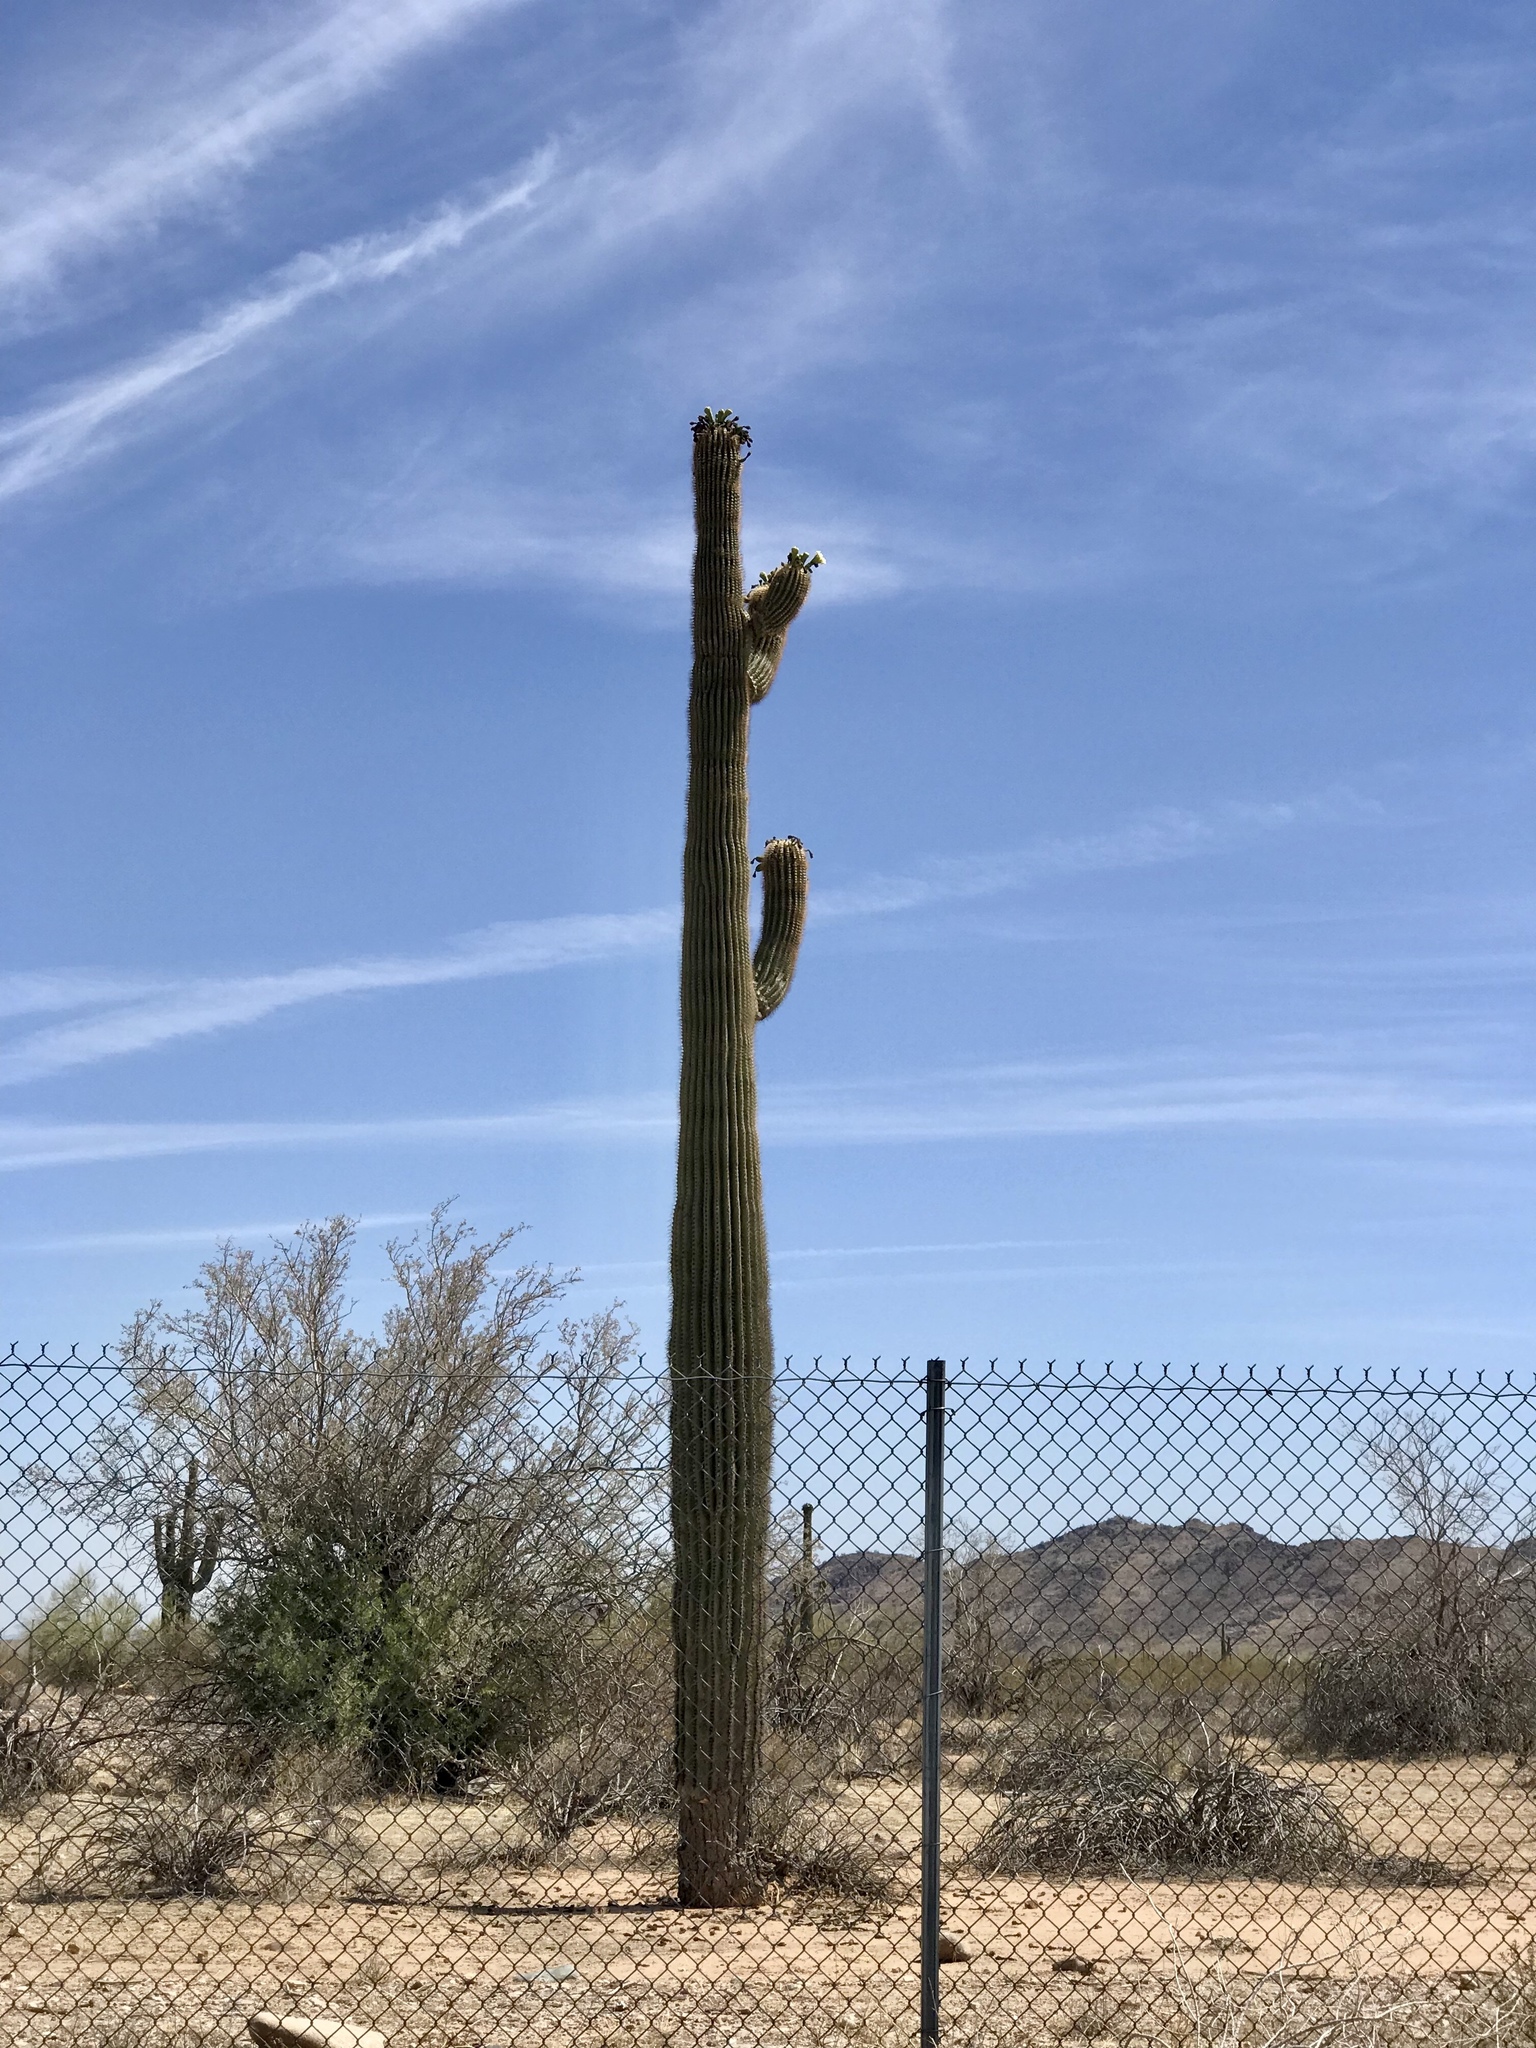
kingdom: Plantae
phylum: Tracheophyta
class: Magnoliopsida
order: Caryophyllales
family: Cactaceae
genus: Carnegiea
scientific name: Carnegiea gigantea
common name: Saguaro
